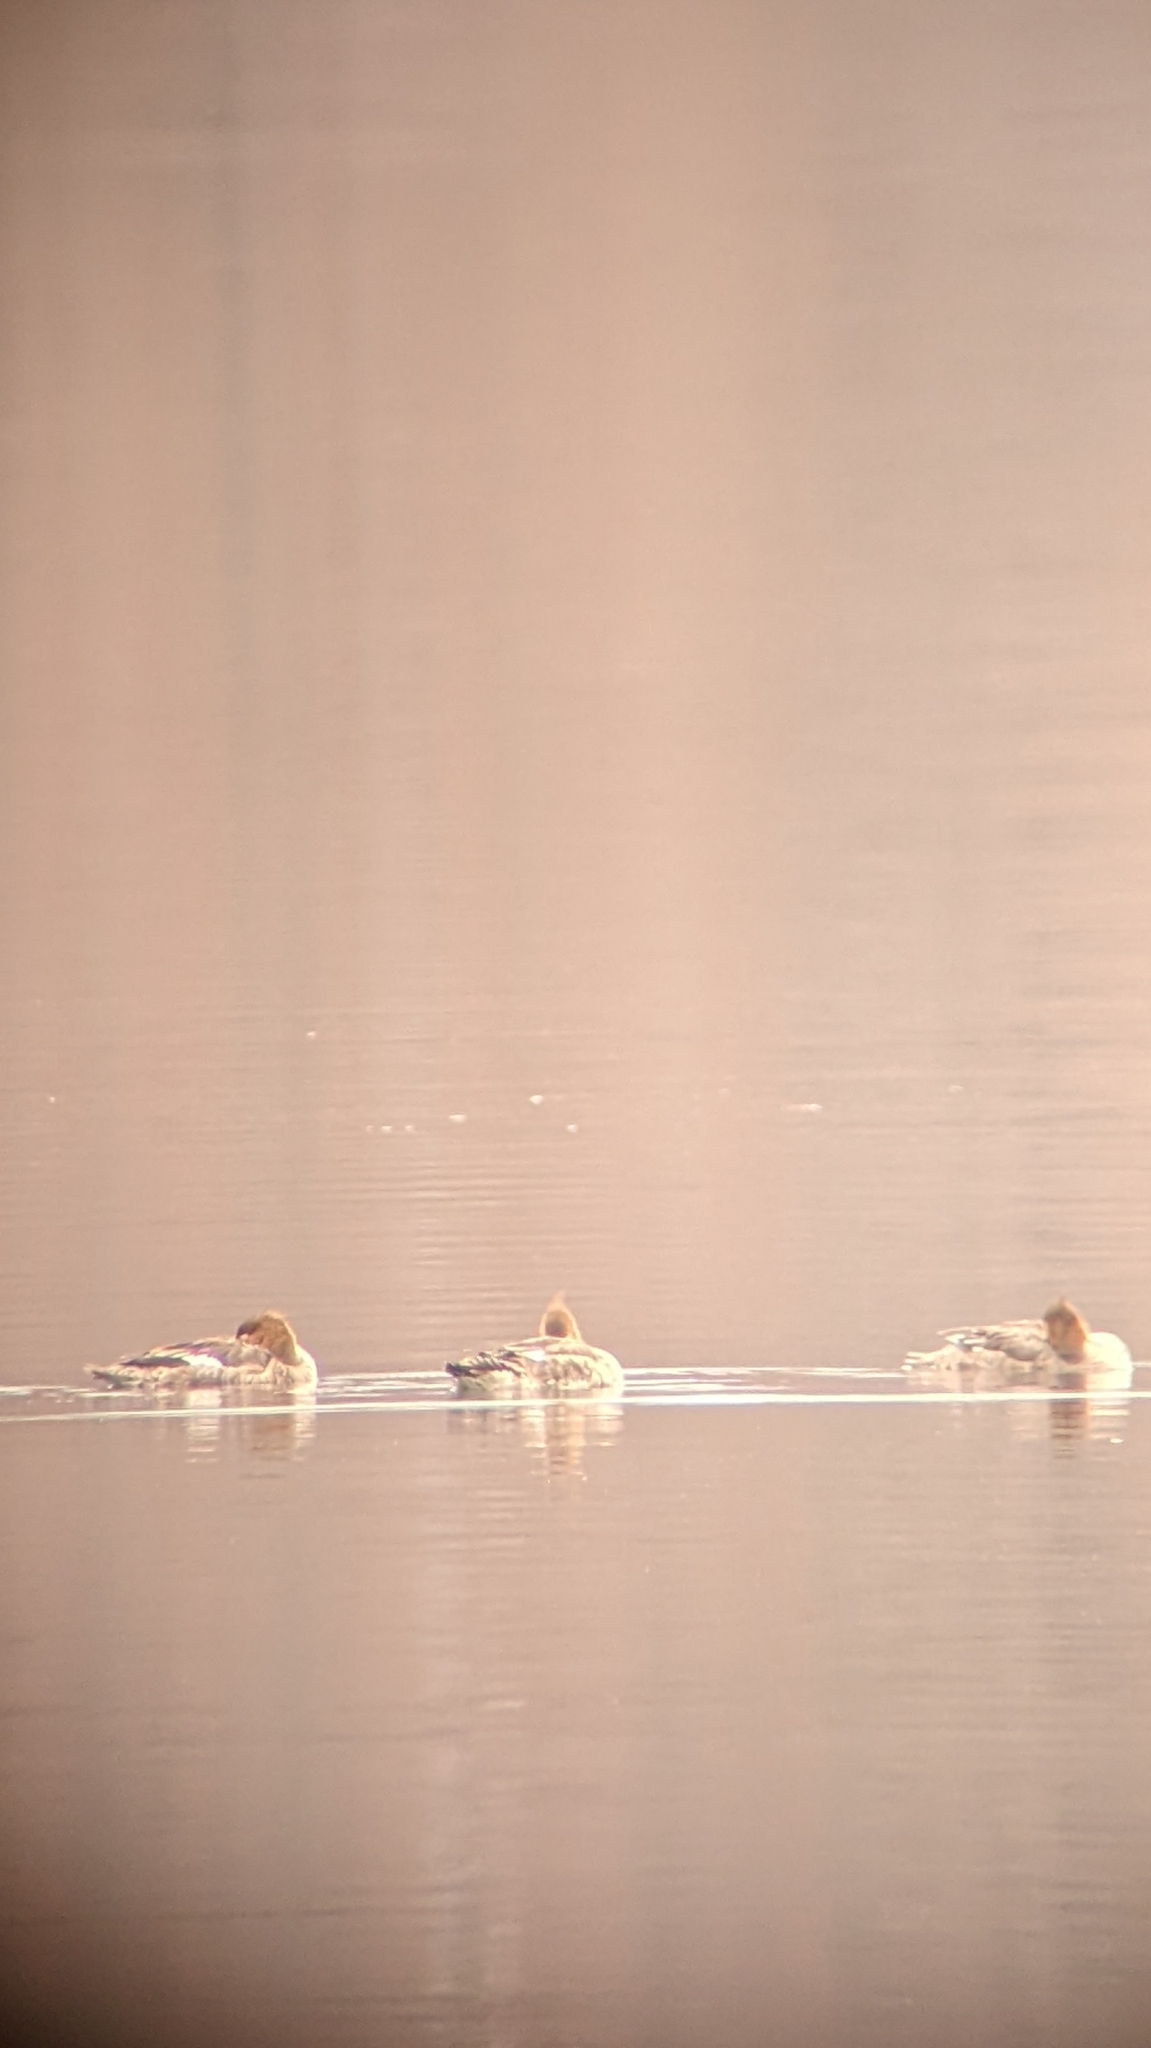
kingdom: Animalia
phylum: Chordata
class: Aves
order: Anseriformes
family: Anatidae
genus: Mergus
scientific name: Mergus serrator
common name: Red-breasted merganser
